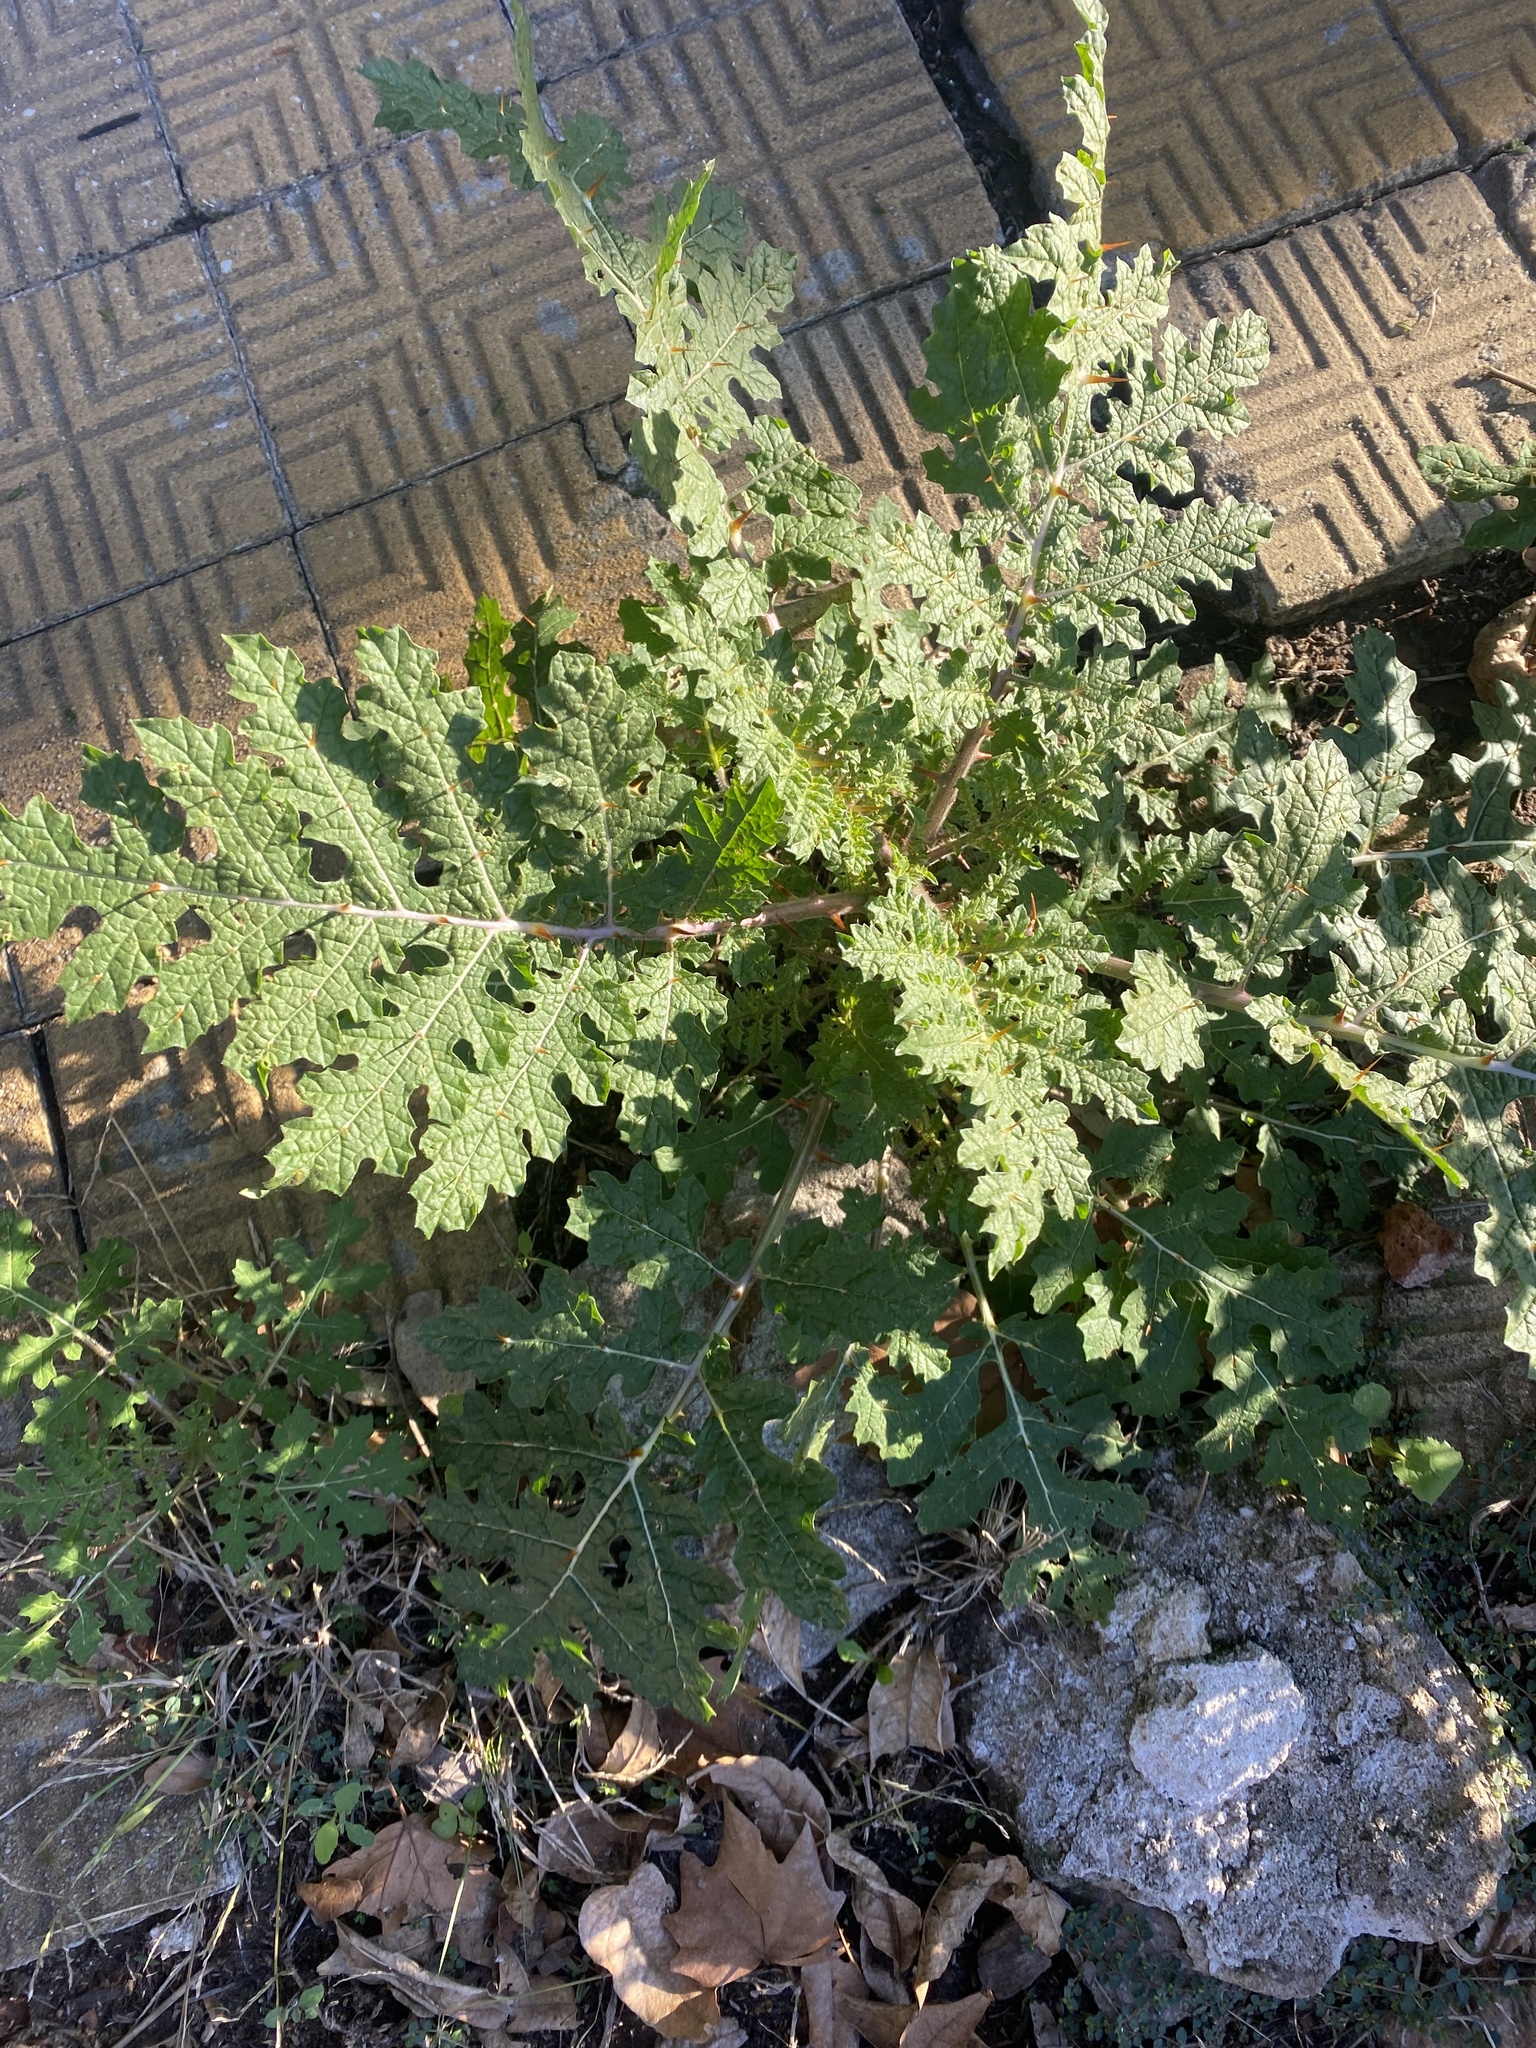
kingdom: Plantae
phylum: Tracheophyta
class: Magnoliopsida
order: Solanales
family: Solanaceae
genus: Solanum
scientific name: Solanum sisymbriifolium
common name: Red buffalo-bur
